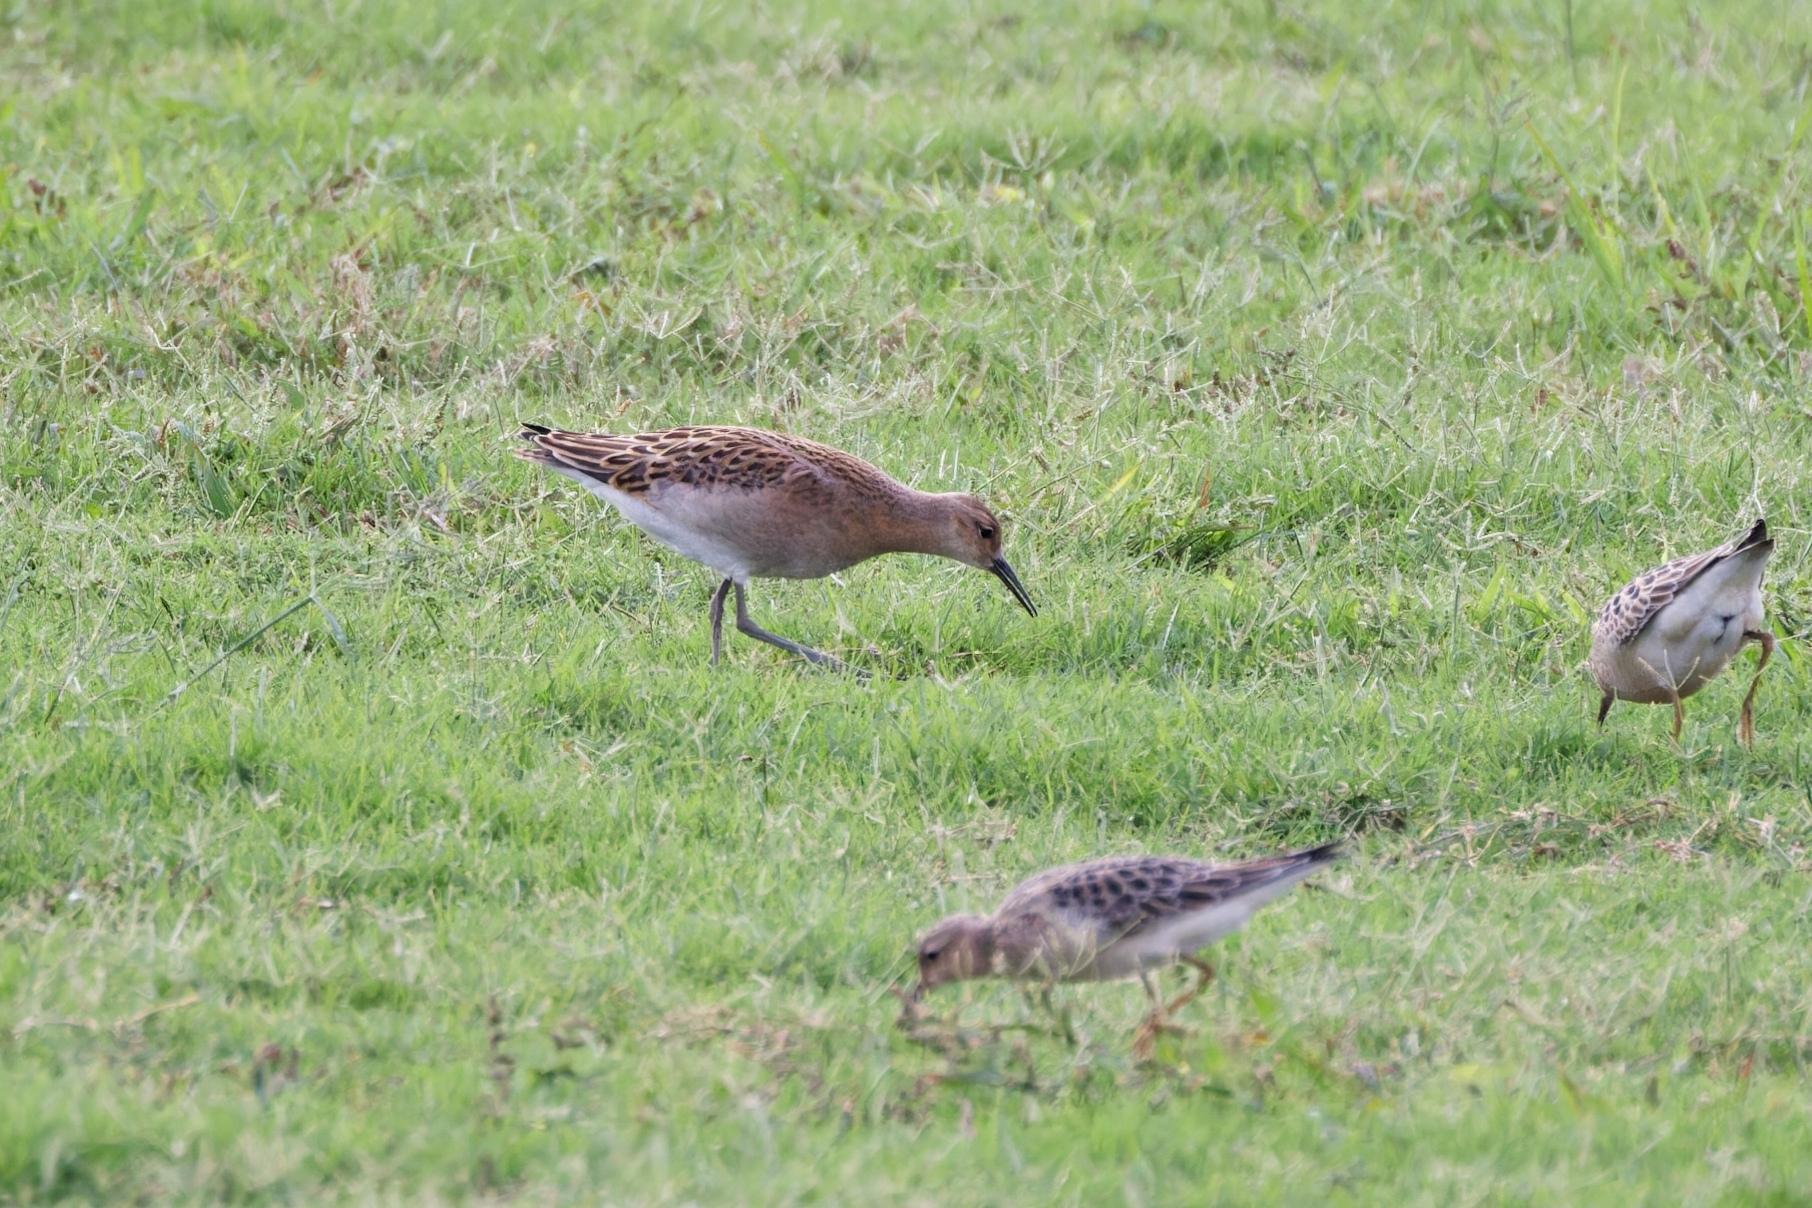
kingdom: Animalia
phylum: Chordata
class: Aves
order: Charadriiformes
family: Scolopacidae
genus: Calidris
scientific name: Calidris pugnax
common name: Ruff
